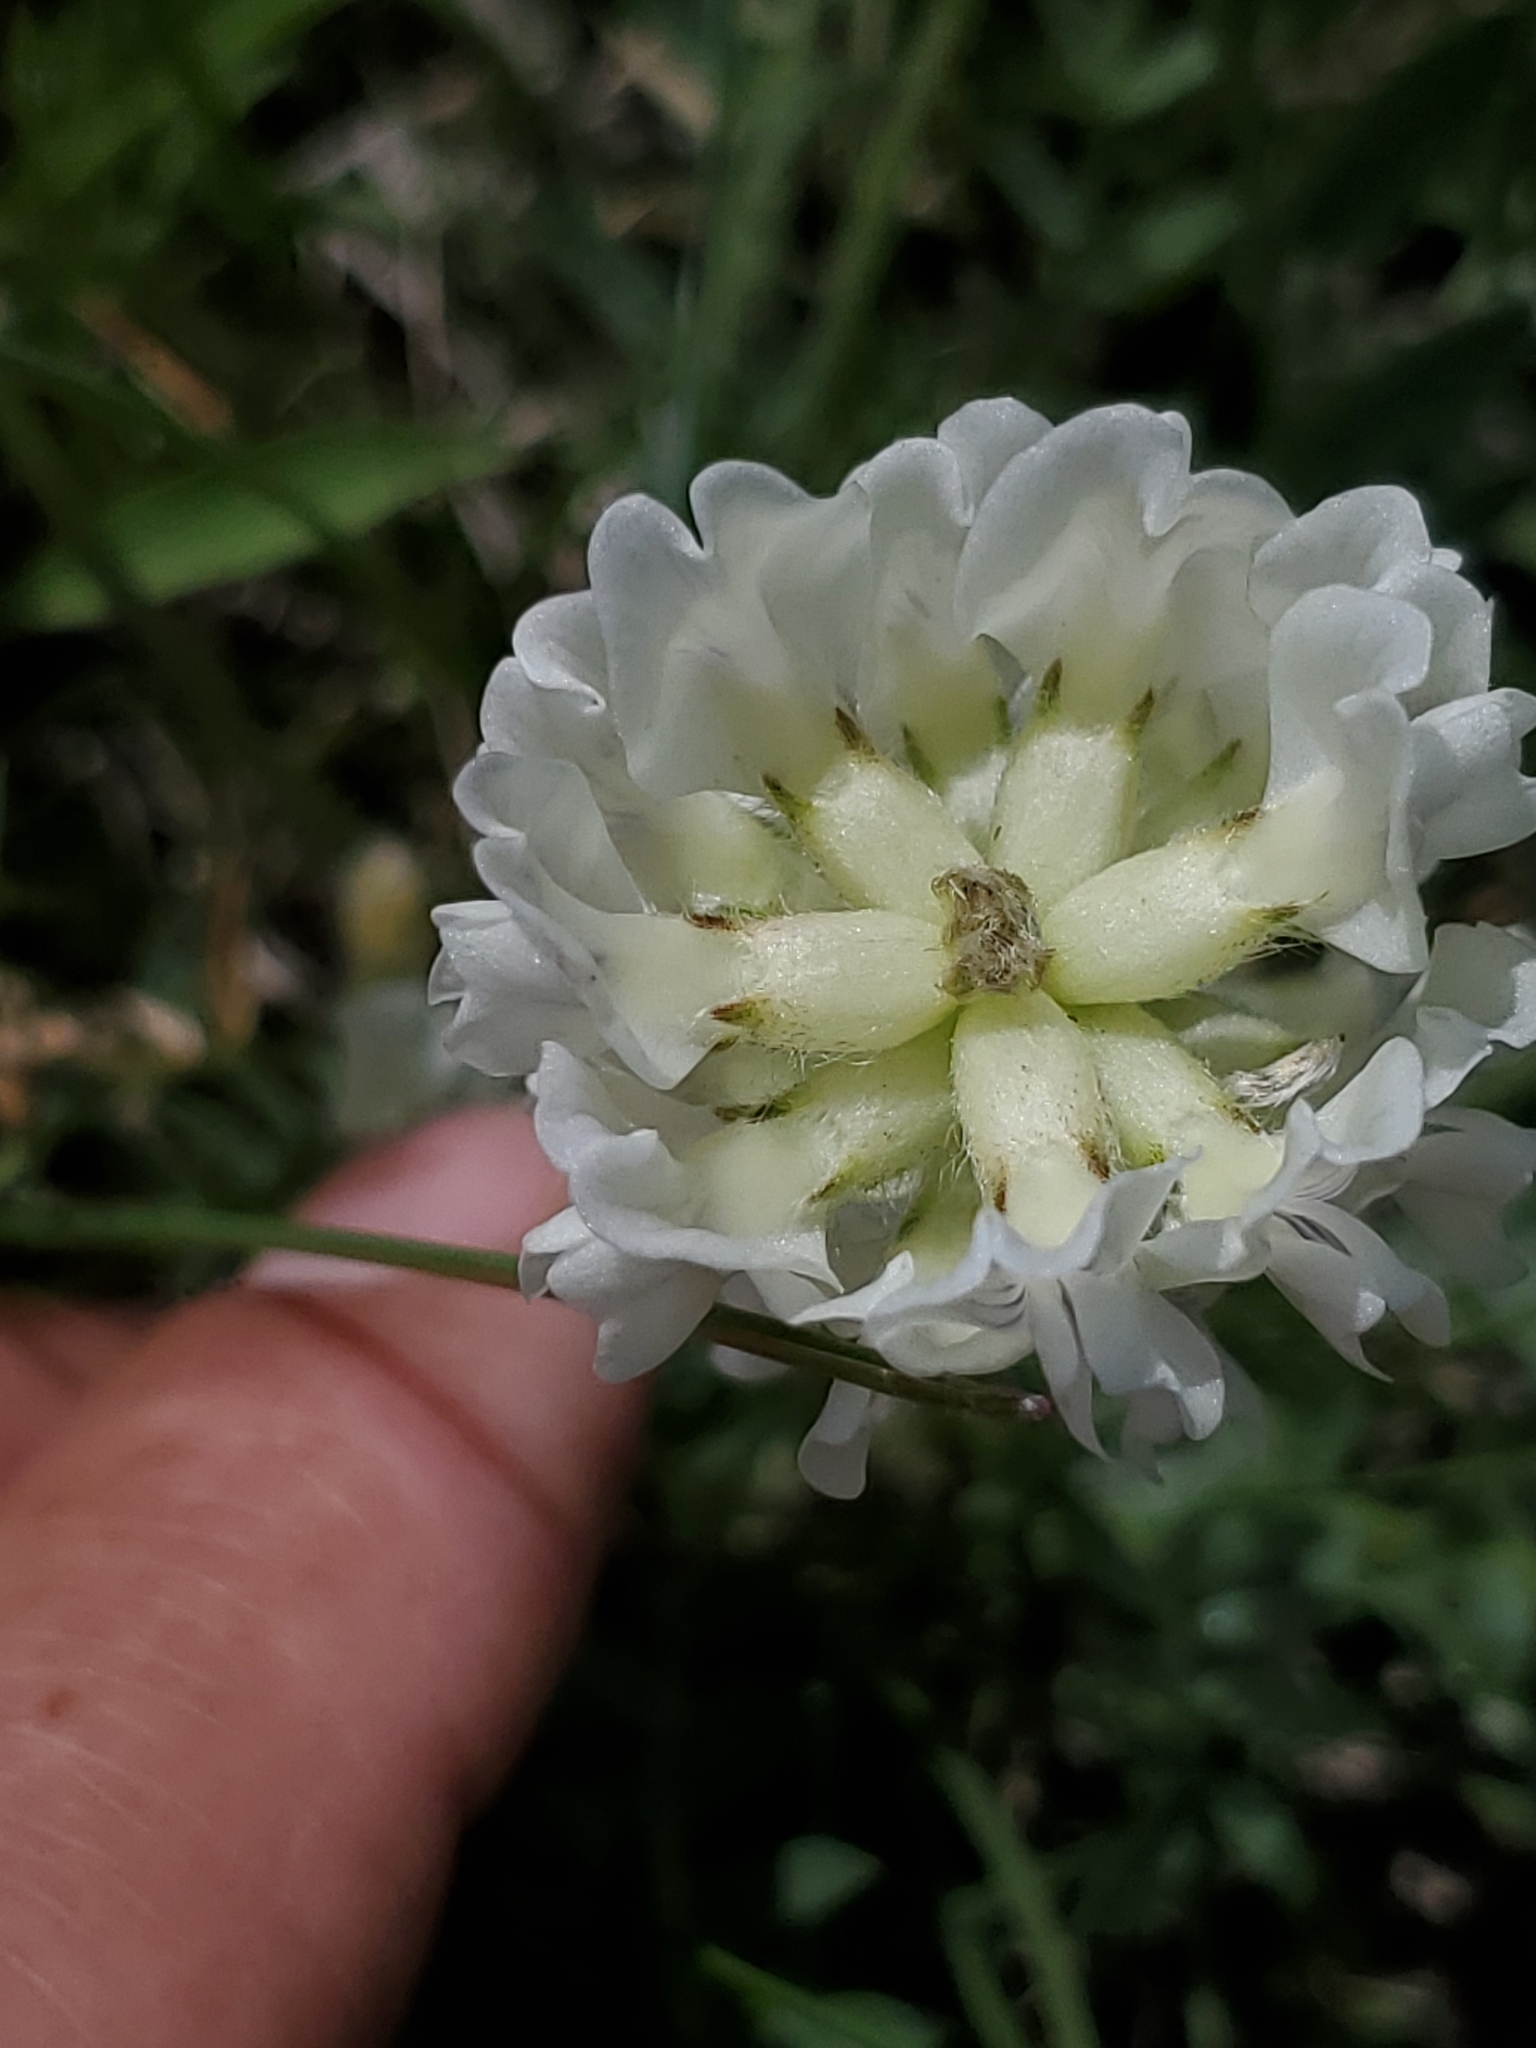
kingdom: Plantae
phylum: Tracheophyta
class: Magnoliopsida
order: Fabales
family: Fabaceae
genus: Oxytropis
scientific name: Oxytropis sericea
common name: Silky locoweed
